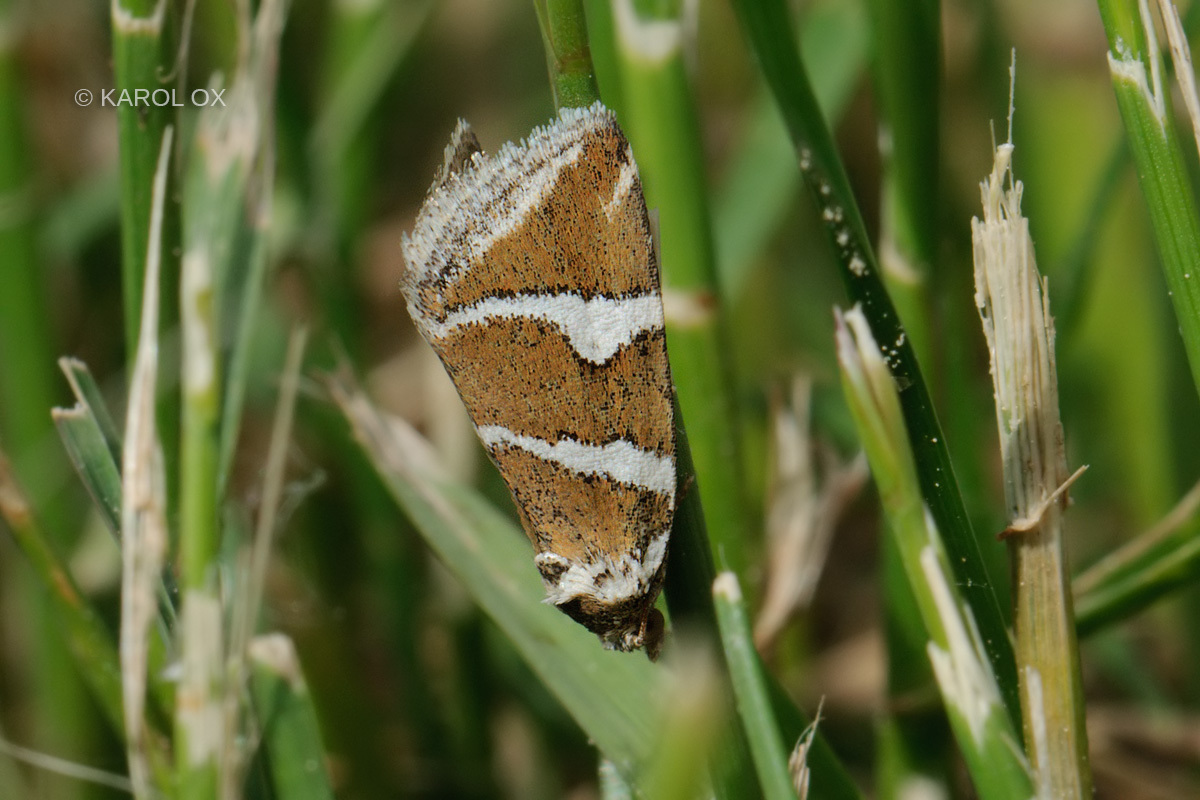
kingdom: Animalia
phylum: Arthropoda
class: Insecta
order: Lepidoptera
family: Noctuidae
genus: Deltote
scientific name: Deltote bankiana
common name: Silver barred
